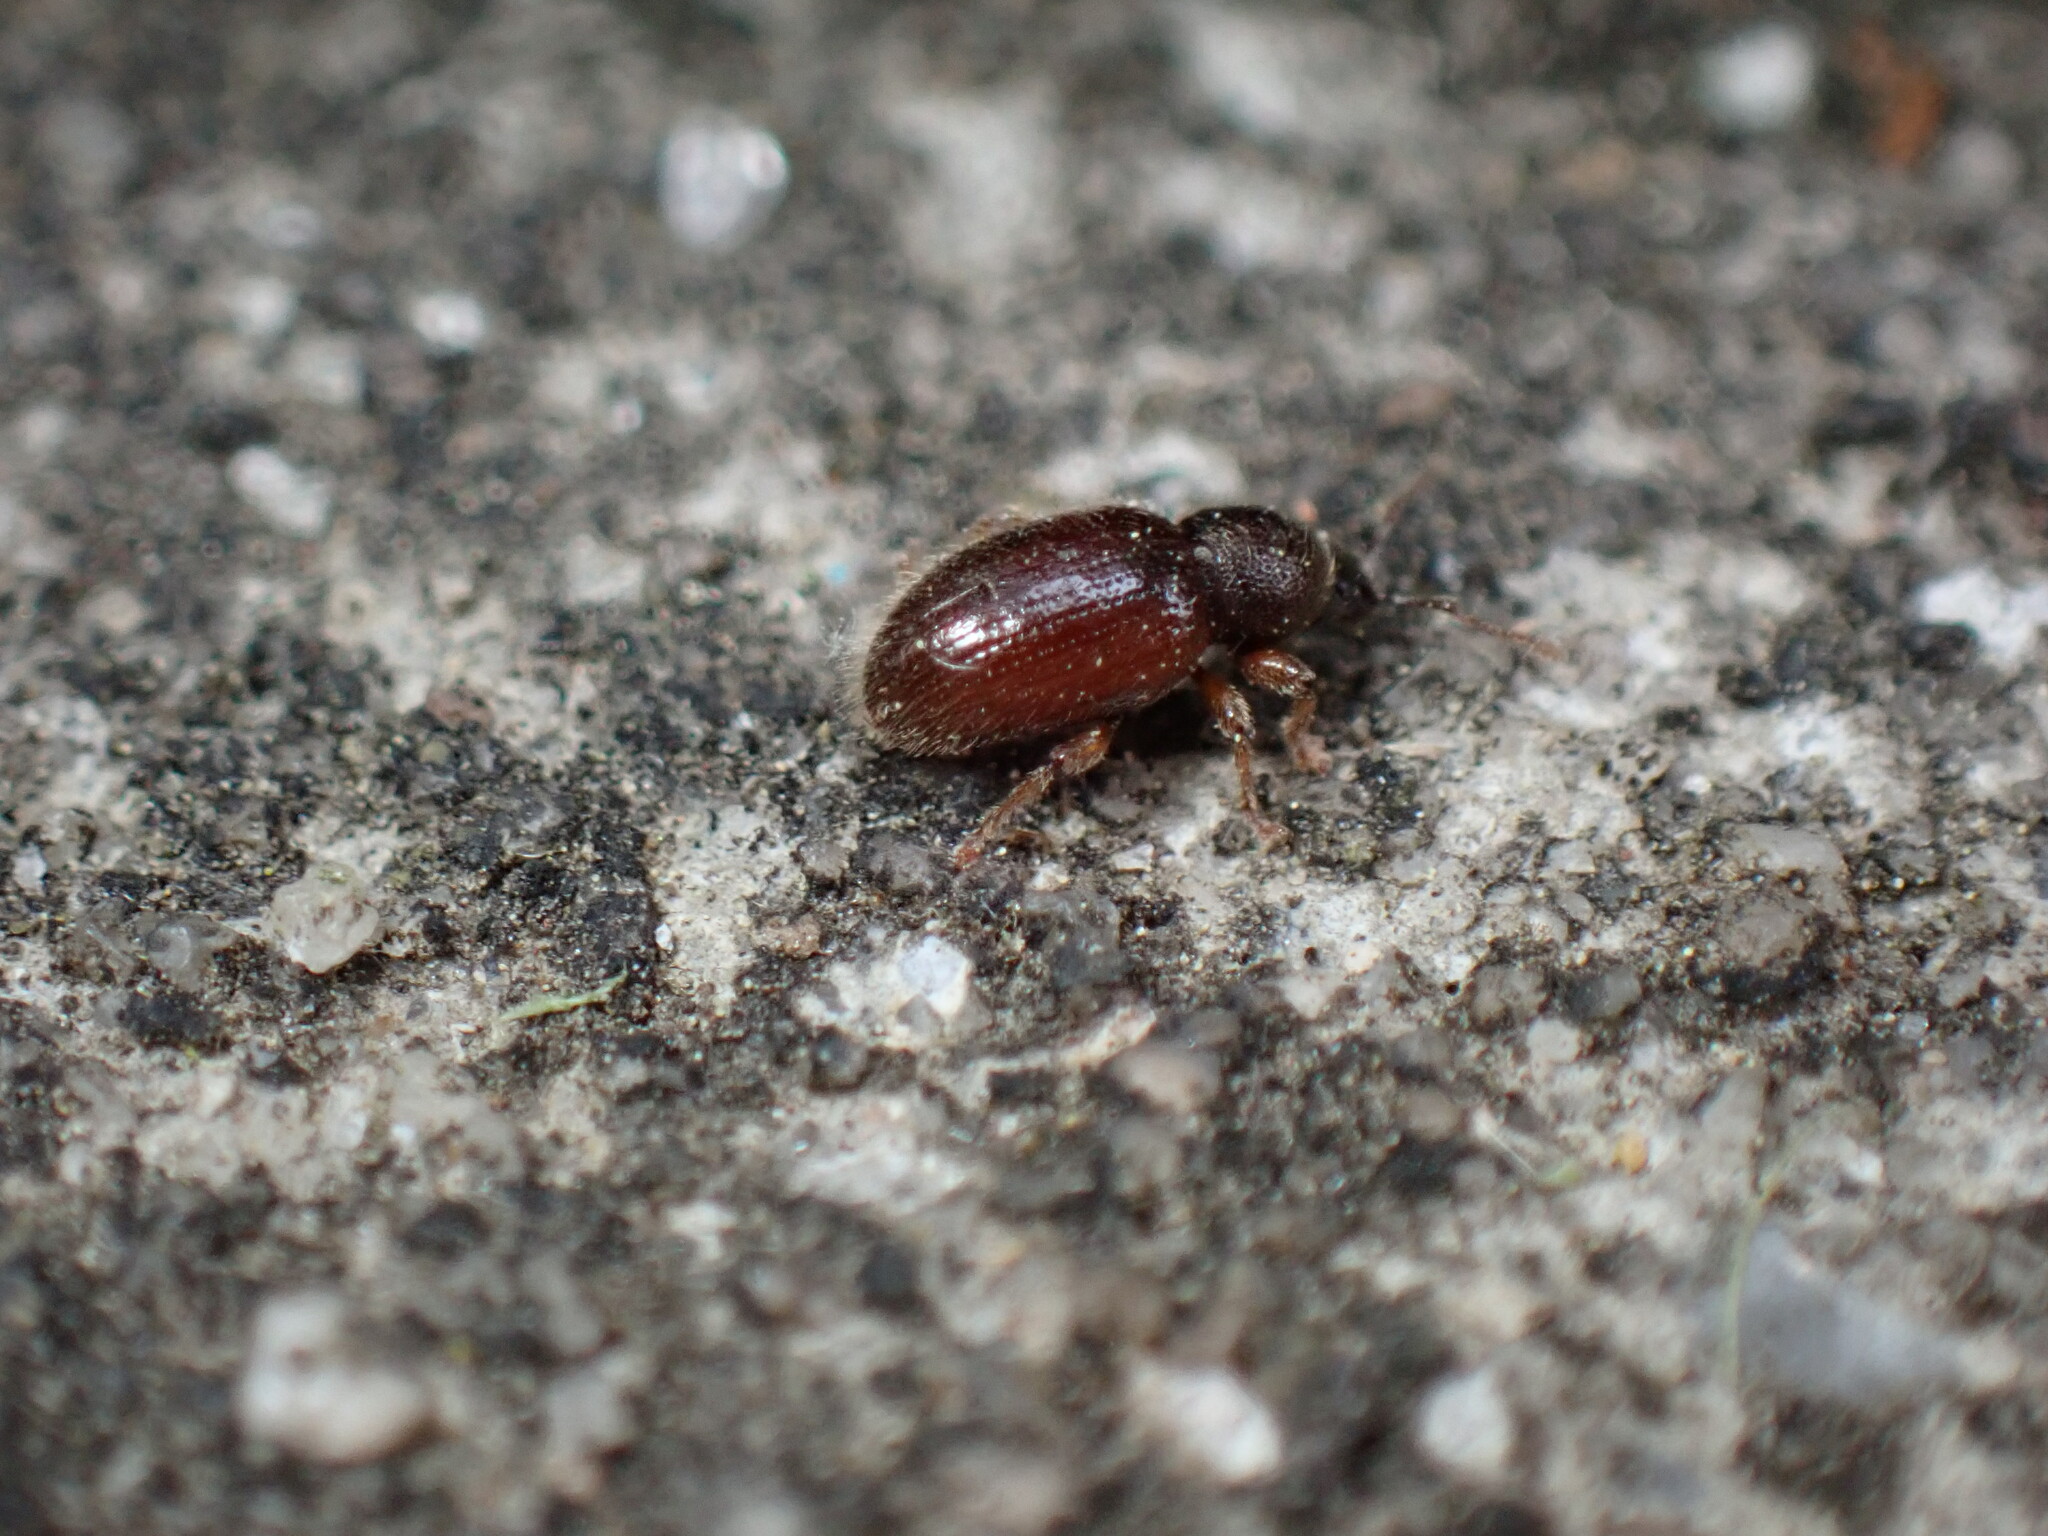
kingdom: Animalia
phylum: Arthropoda
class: Insecta
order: Coleoptera
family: Curculionidae
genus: Exomias
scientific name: Exomias pellucidus
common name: Hairy spider weevil
